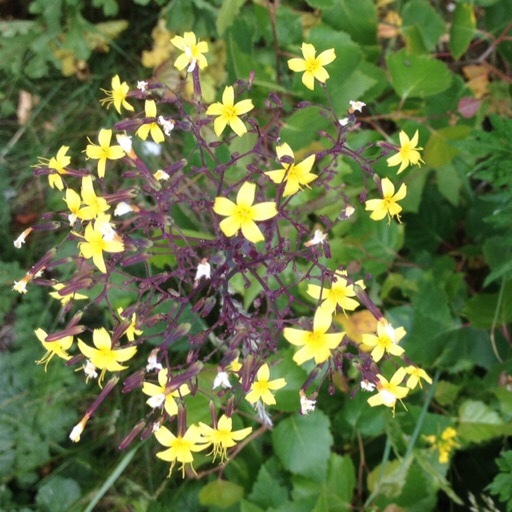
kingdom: Plantae
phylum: Tracheophyta
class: Magnoliopsida
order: Asterales
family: Asteraceae
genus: Mycelis
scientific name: Mycelis muralis
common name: Wall lettuce
